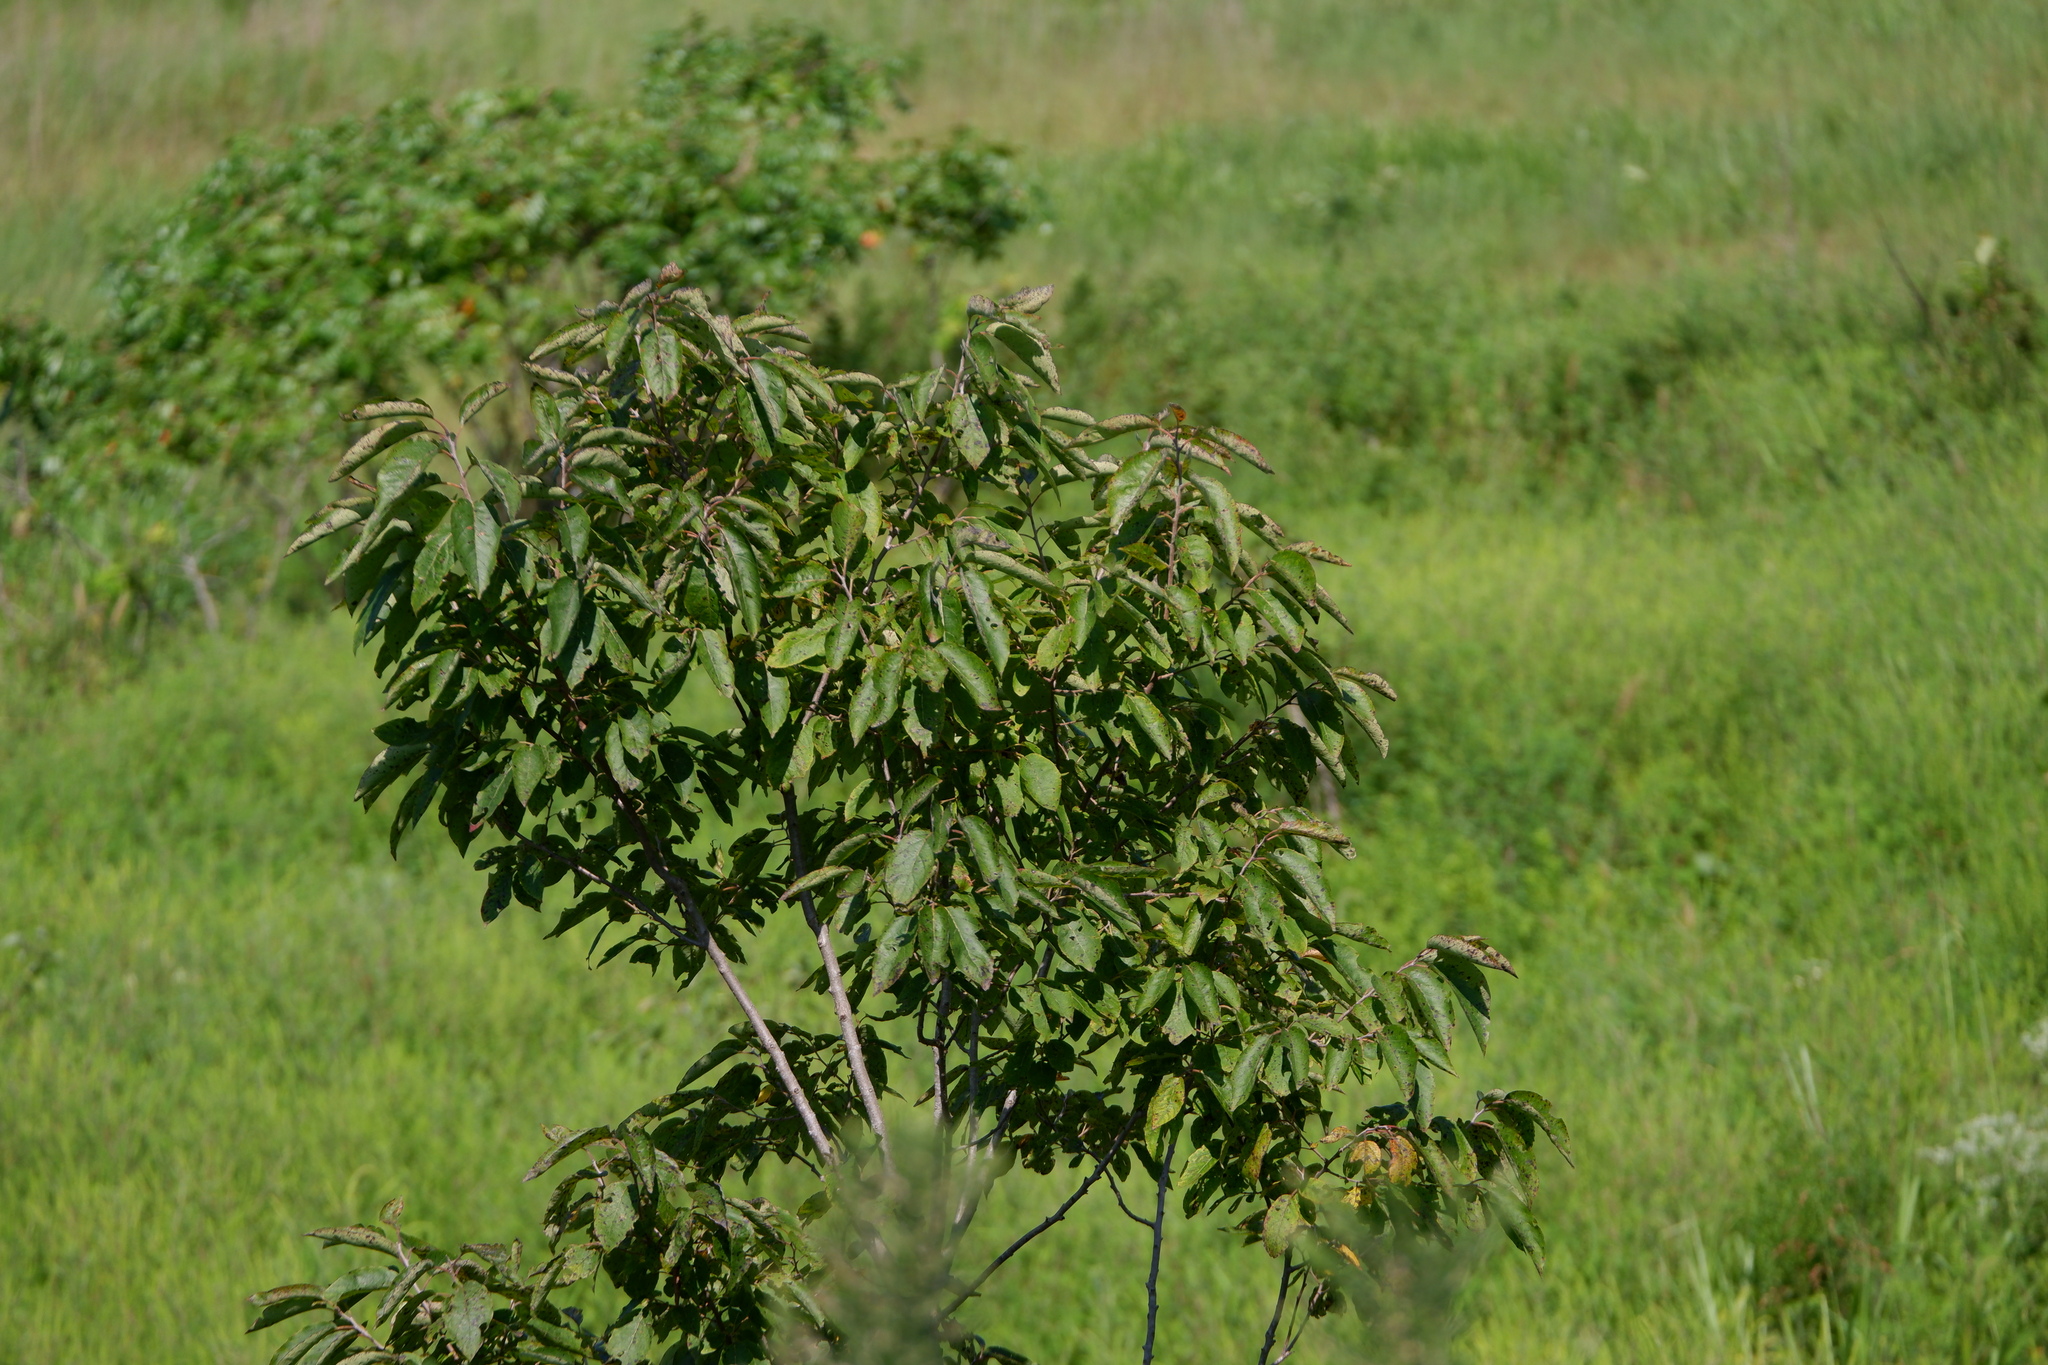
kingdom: Plantae
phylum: Tracheophyta
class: Magnoliopsida
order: Ericales
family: Ebenaceae
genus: Diospyros
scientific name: Diospyros virginiana
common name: Persimmon
